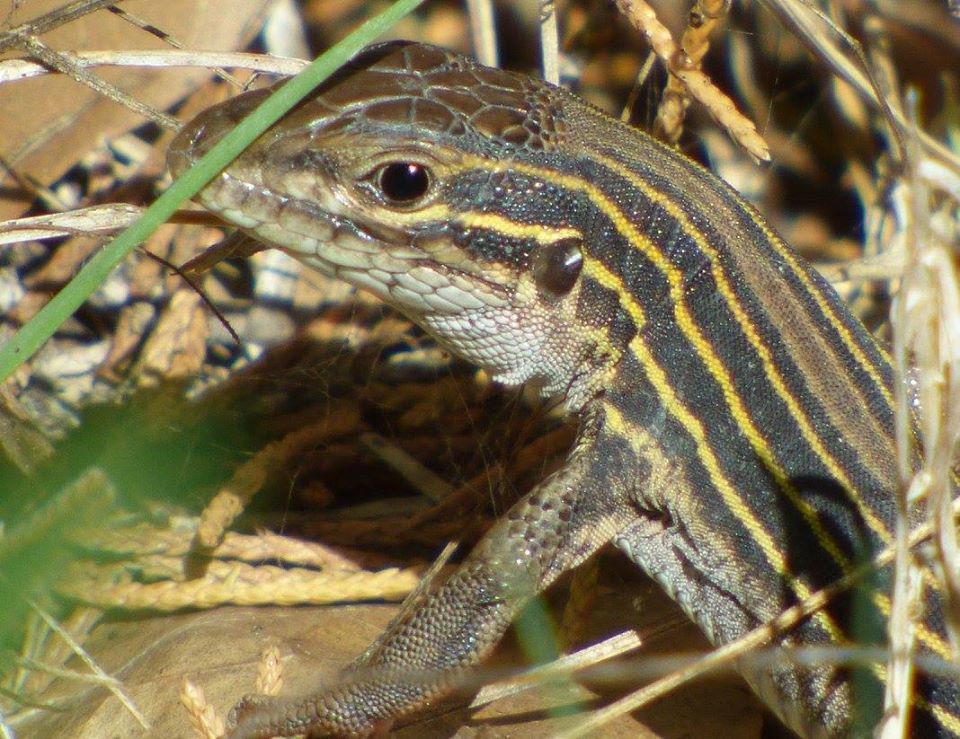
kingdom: Animalia
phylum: Chordata
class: Squamata
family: Teiidae
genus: Aspidoscelis
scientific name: Aspidoscelis sexlineatus
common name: Six-lined racerunner
